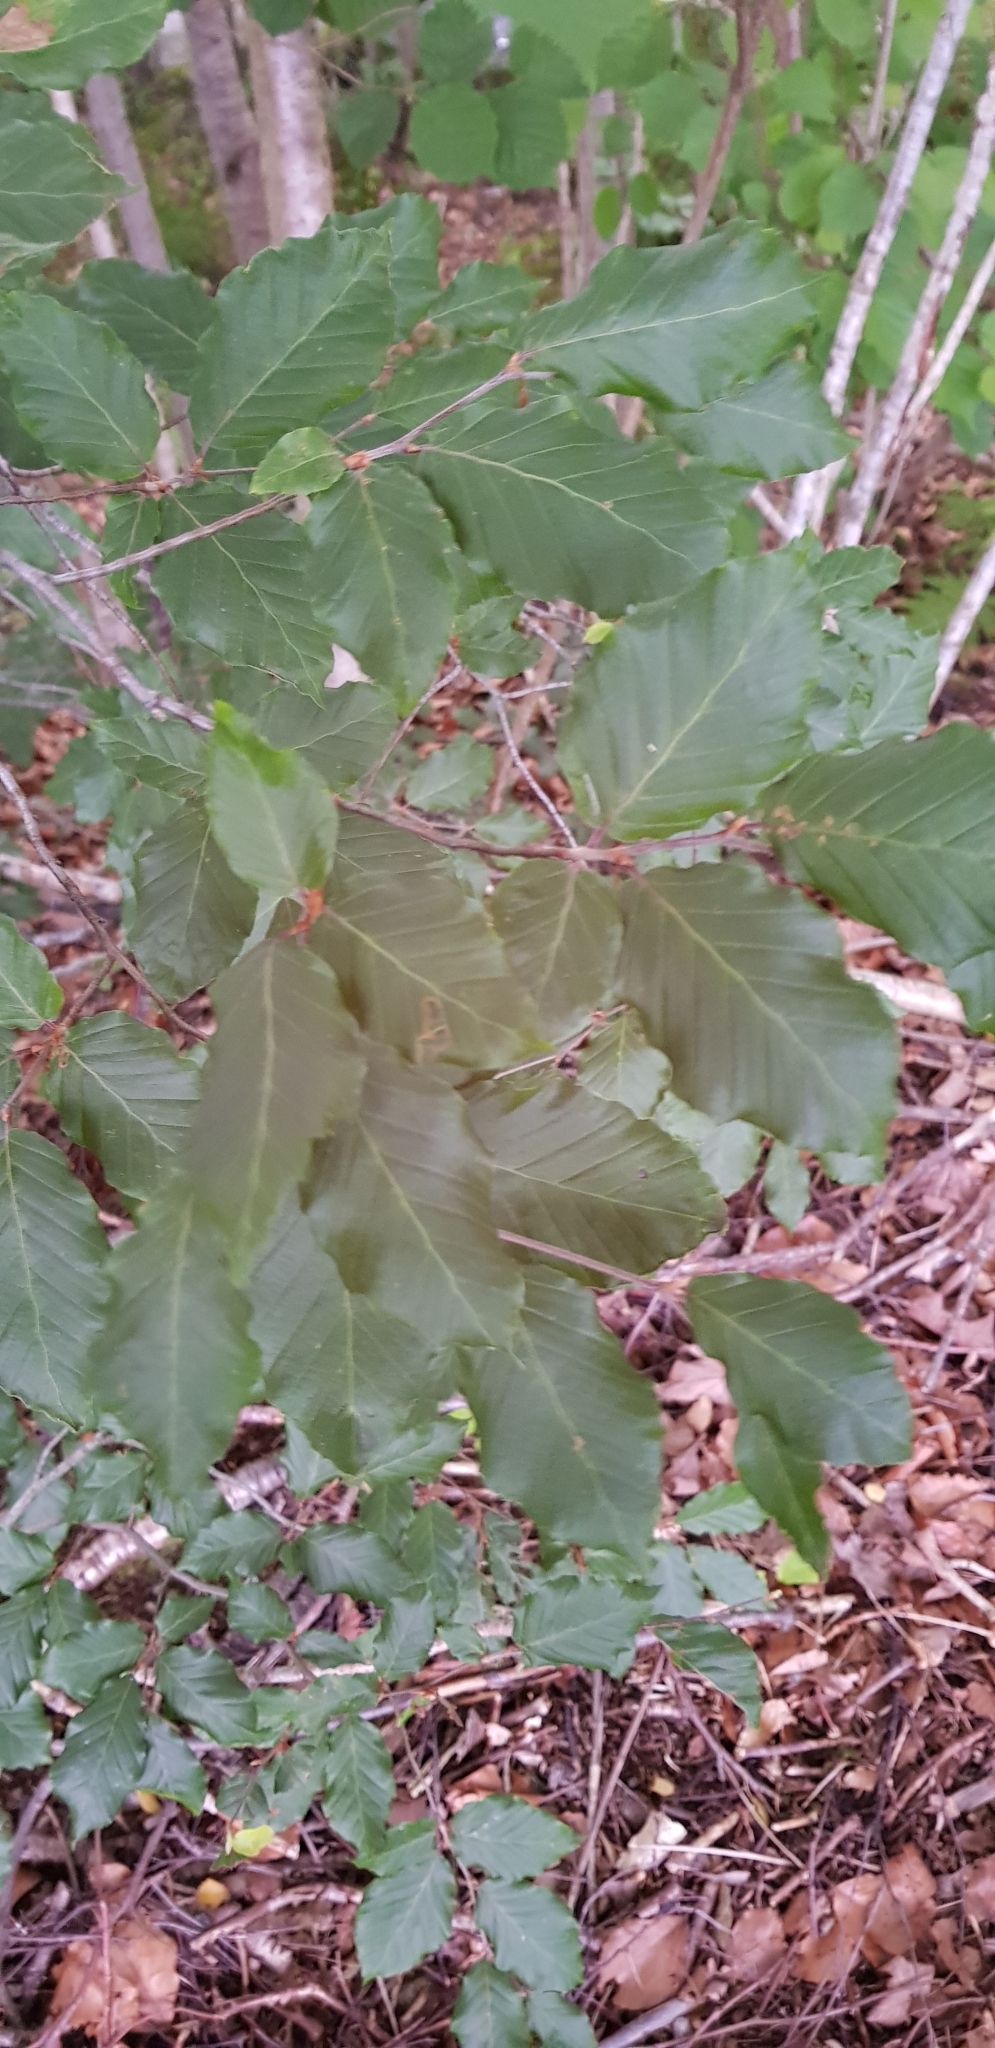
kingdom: Plantae
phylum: Tracheophyta
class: Magnoliopsida
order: Fagales
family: Fagaceae
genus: Fagus
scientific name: Fagus sylvatica
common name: Beech
